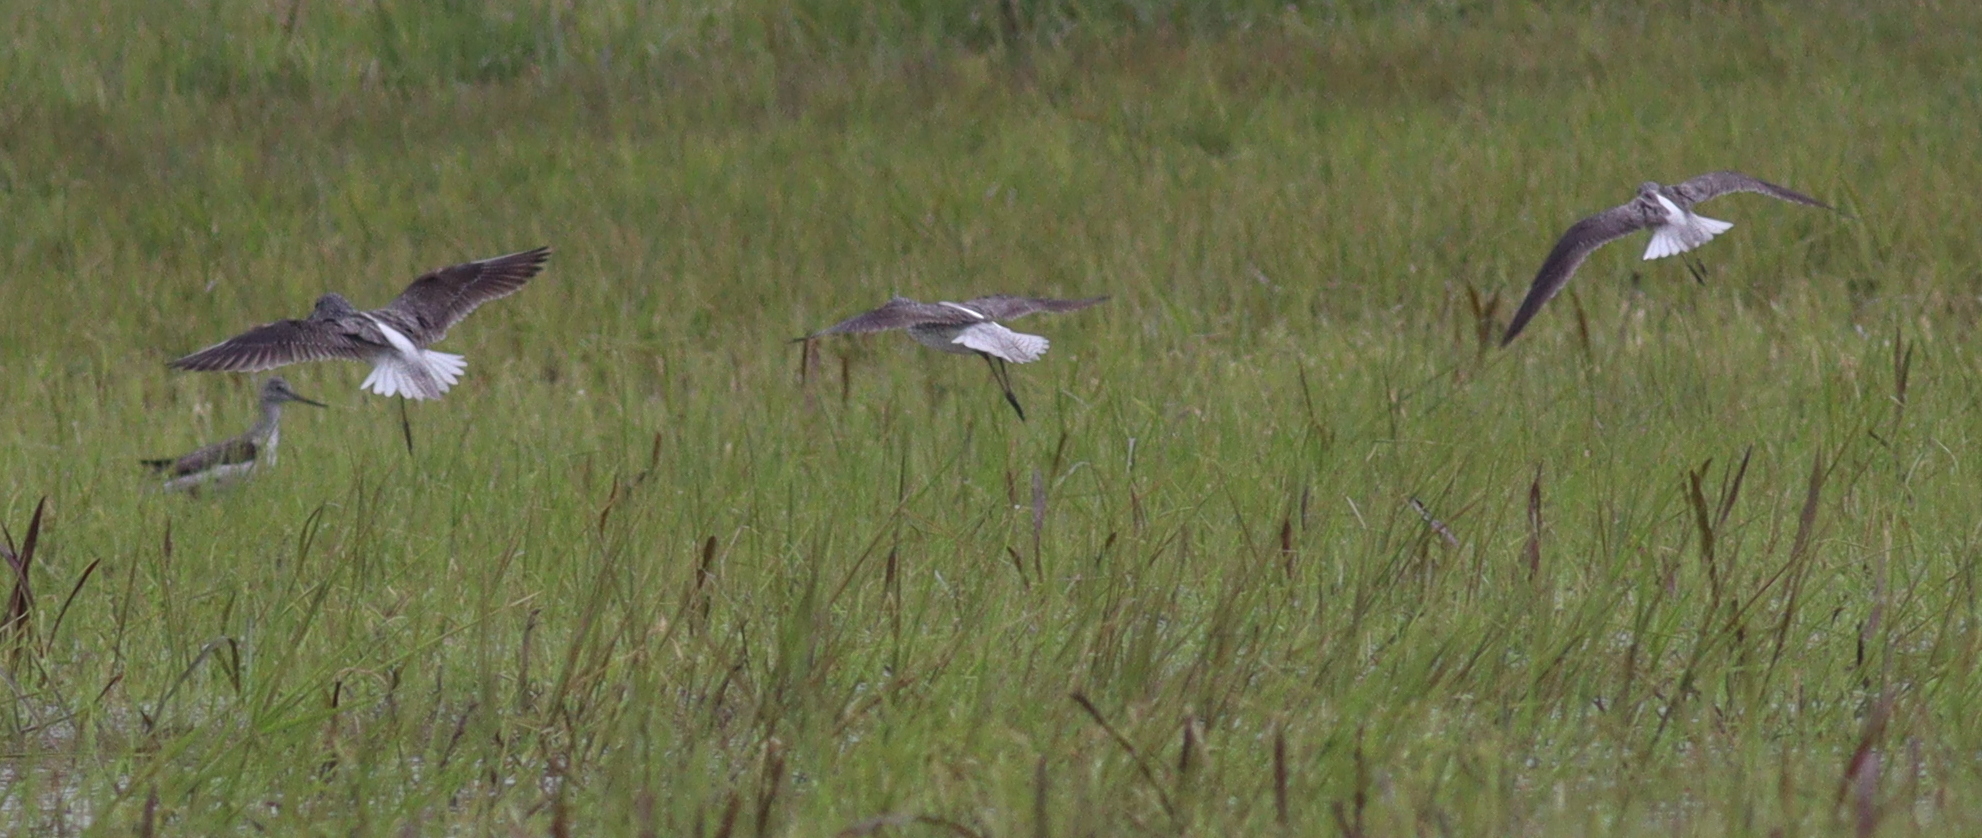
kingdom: Animalia
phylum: Chordata
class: Aves
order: Charadriiformes
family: Scolopacidae
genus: Tringa
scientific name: Tringa nebularia
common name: Common greenshank
